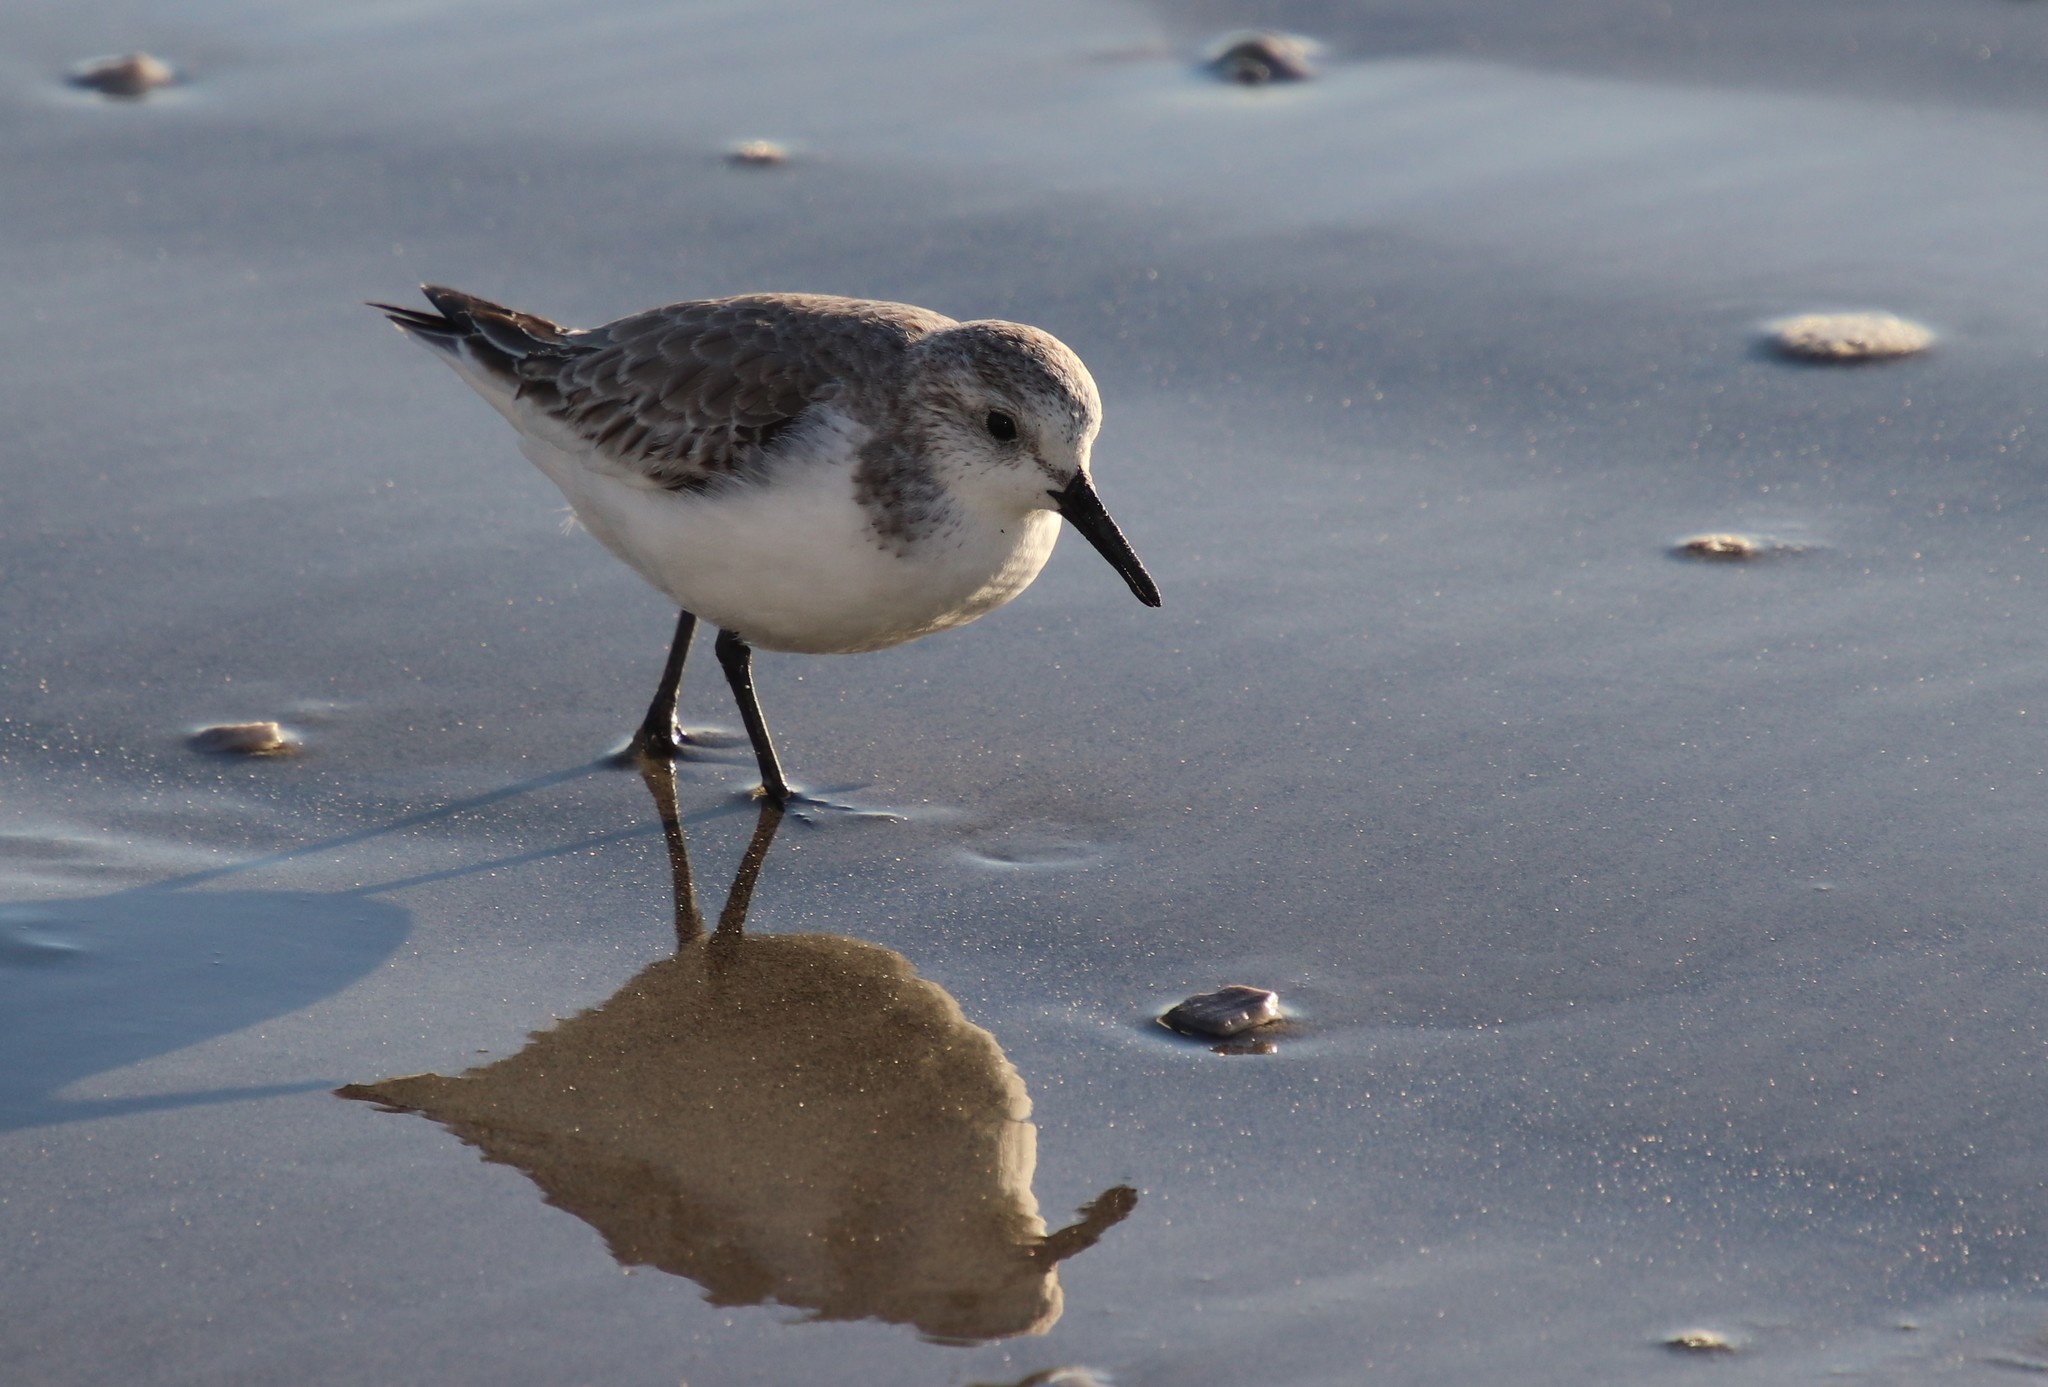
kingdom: Animalia
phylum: Chordata
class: Aves
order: Charadriiformes
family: Scolopacidae
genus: Calidris
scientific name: Calidris alba
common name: Sanderling
